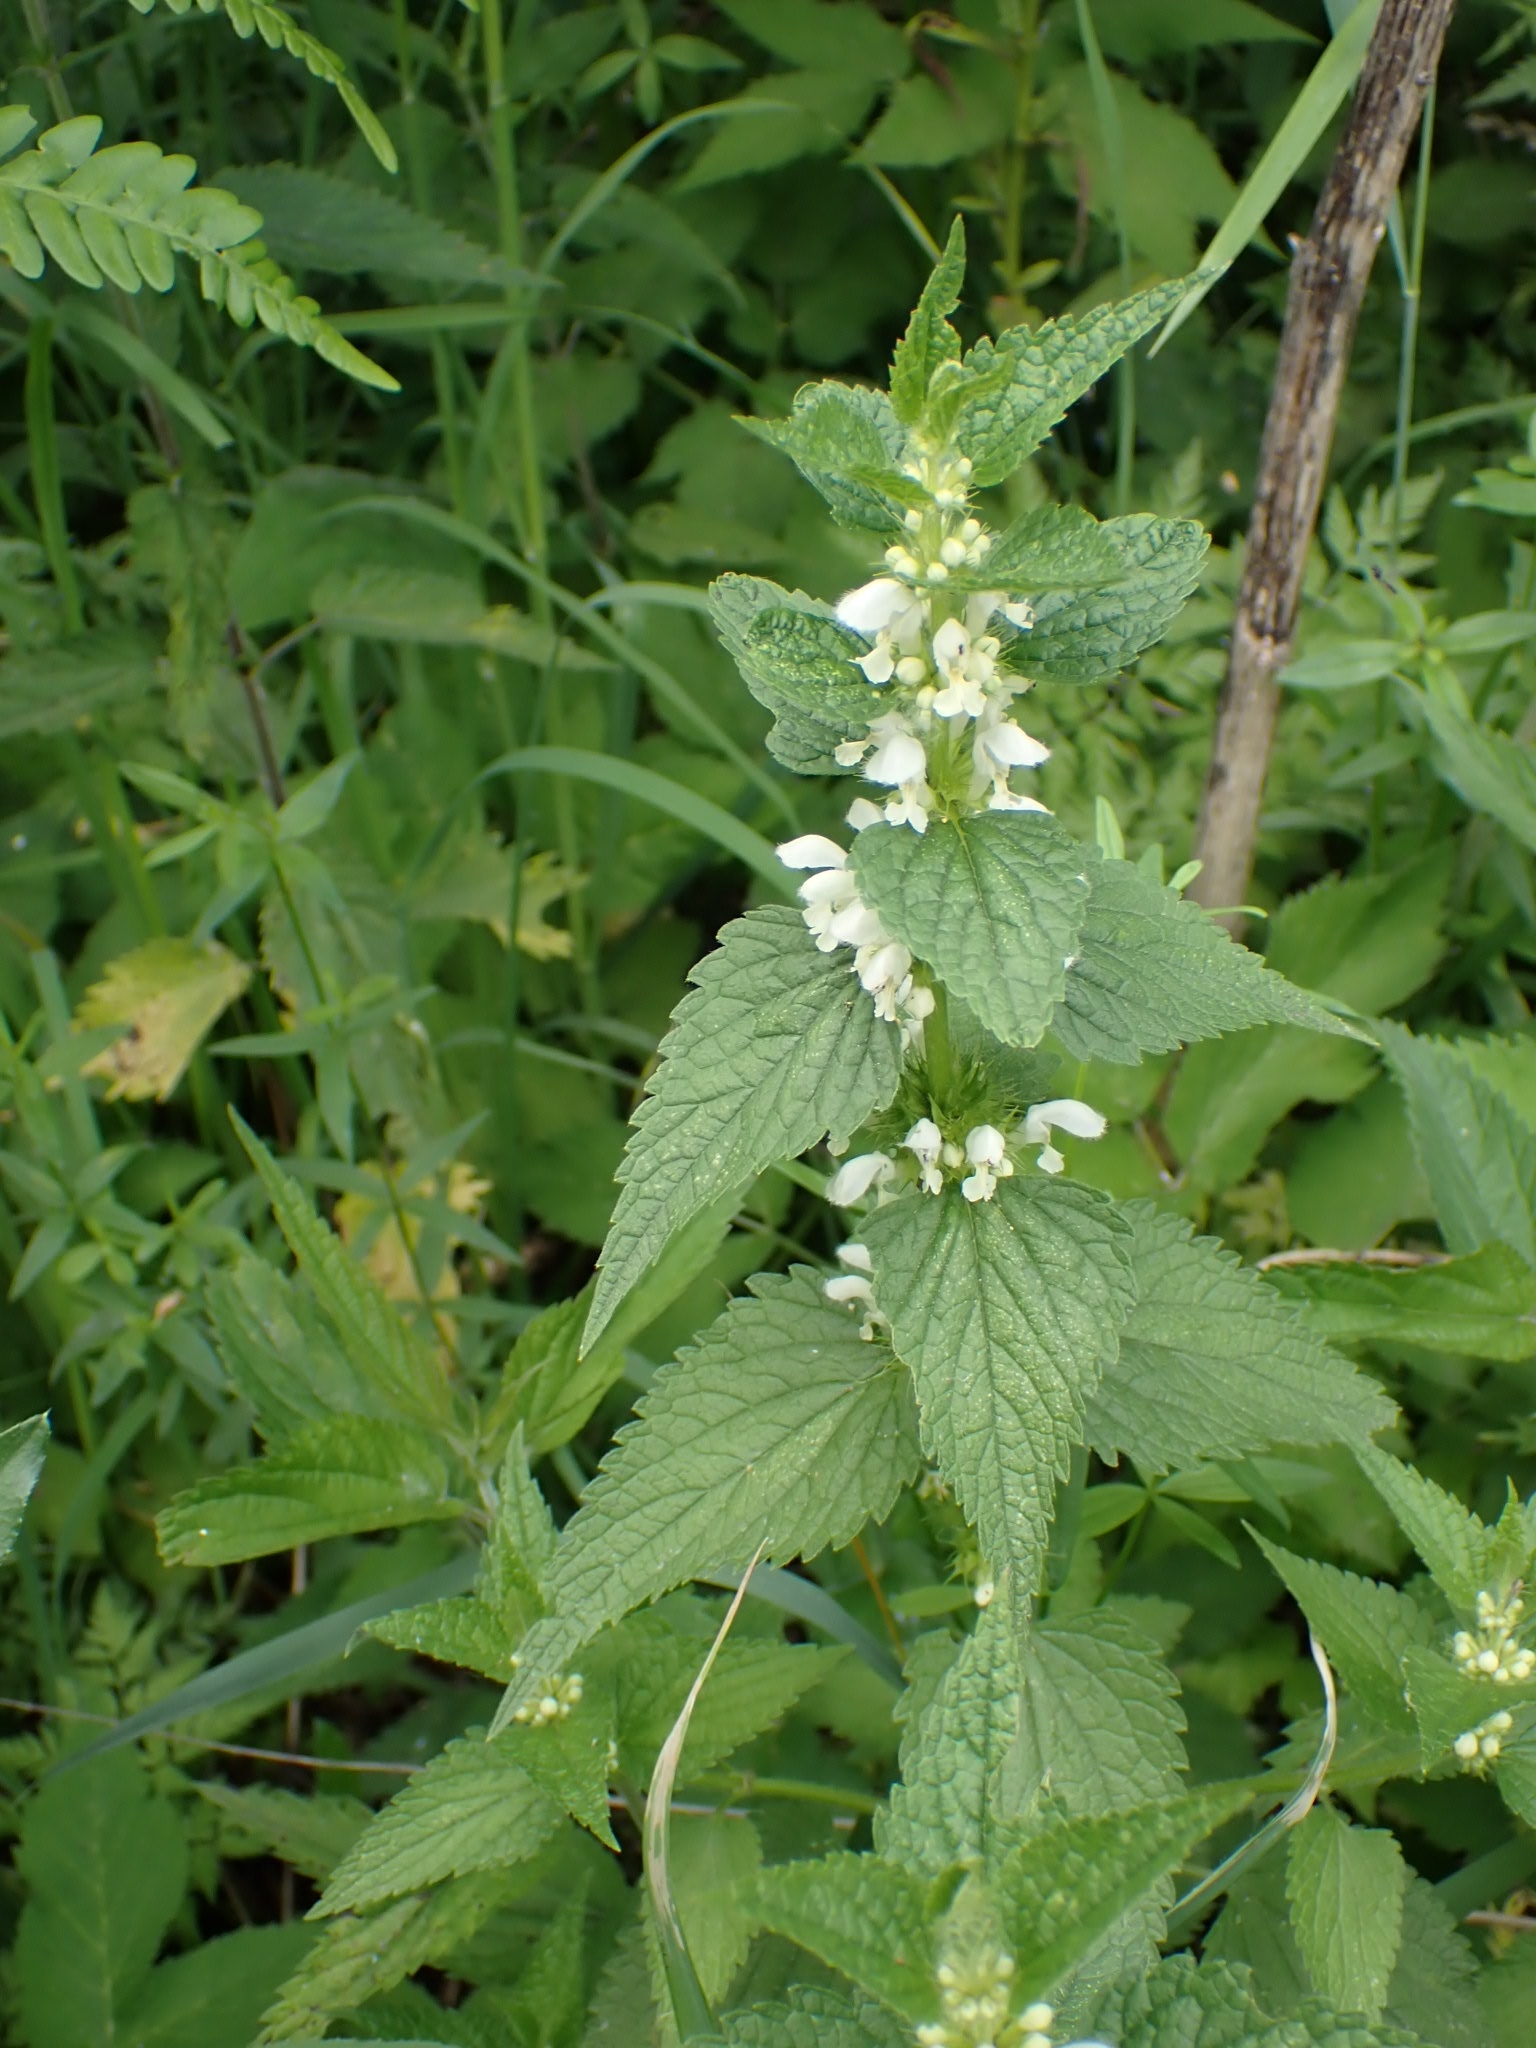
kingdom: Plantae
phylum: Tracheophyta
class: Magnoliopsida
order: Lamiales
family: Lamiaceae
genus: Lamium
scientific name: Lamium album
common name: White dead-nettle
